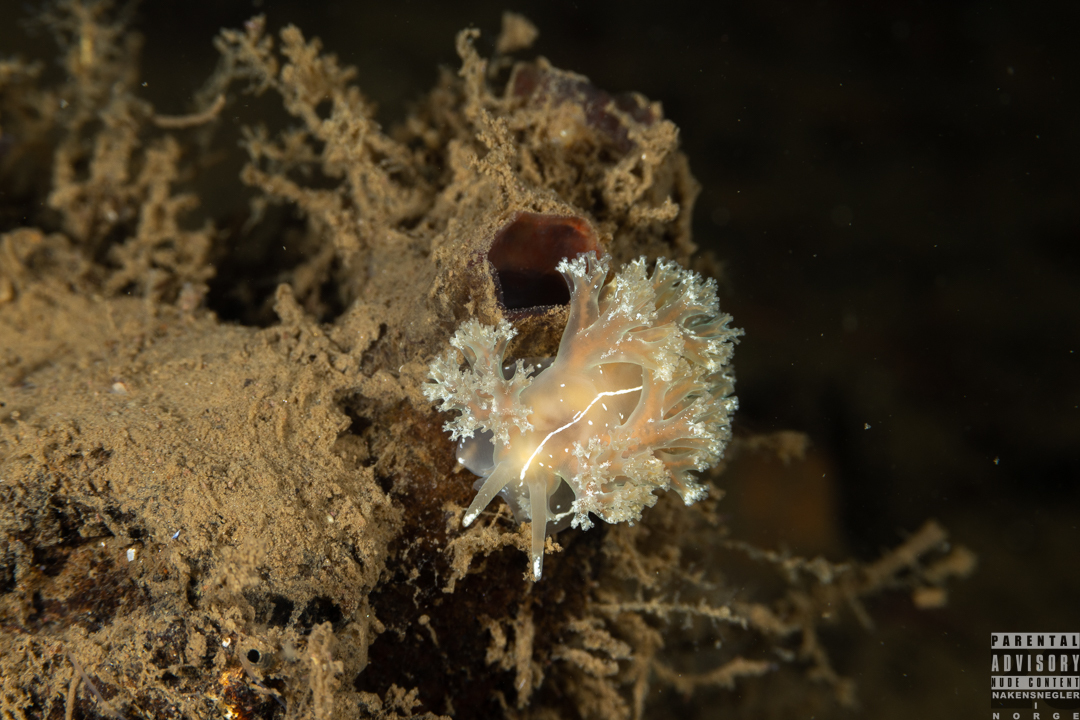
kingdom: Animalia
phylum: Mollusca
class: Gastropoda
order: Nudibranchia
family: Heroidae
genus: Hero
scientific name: Hero formosa
